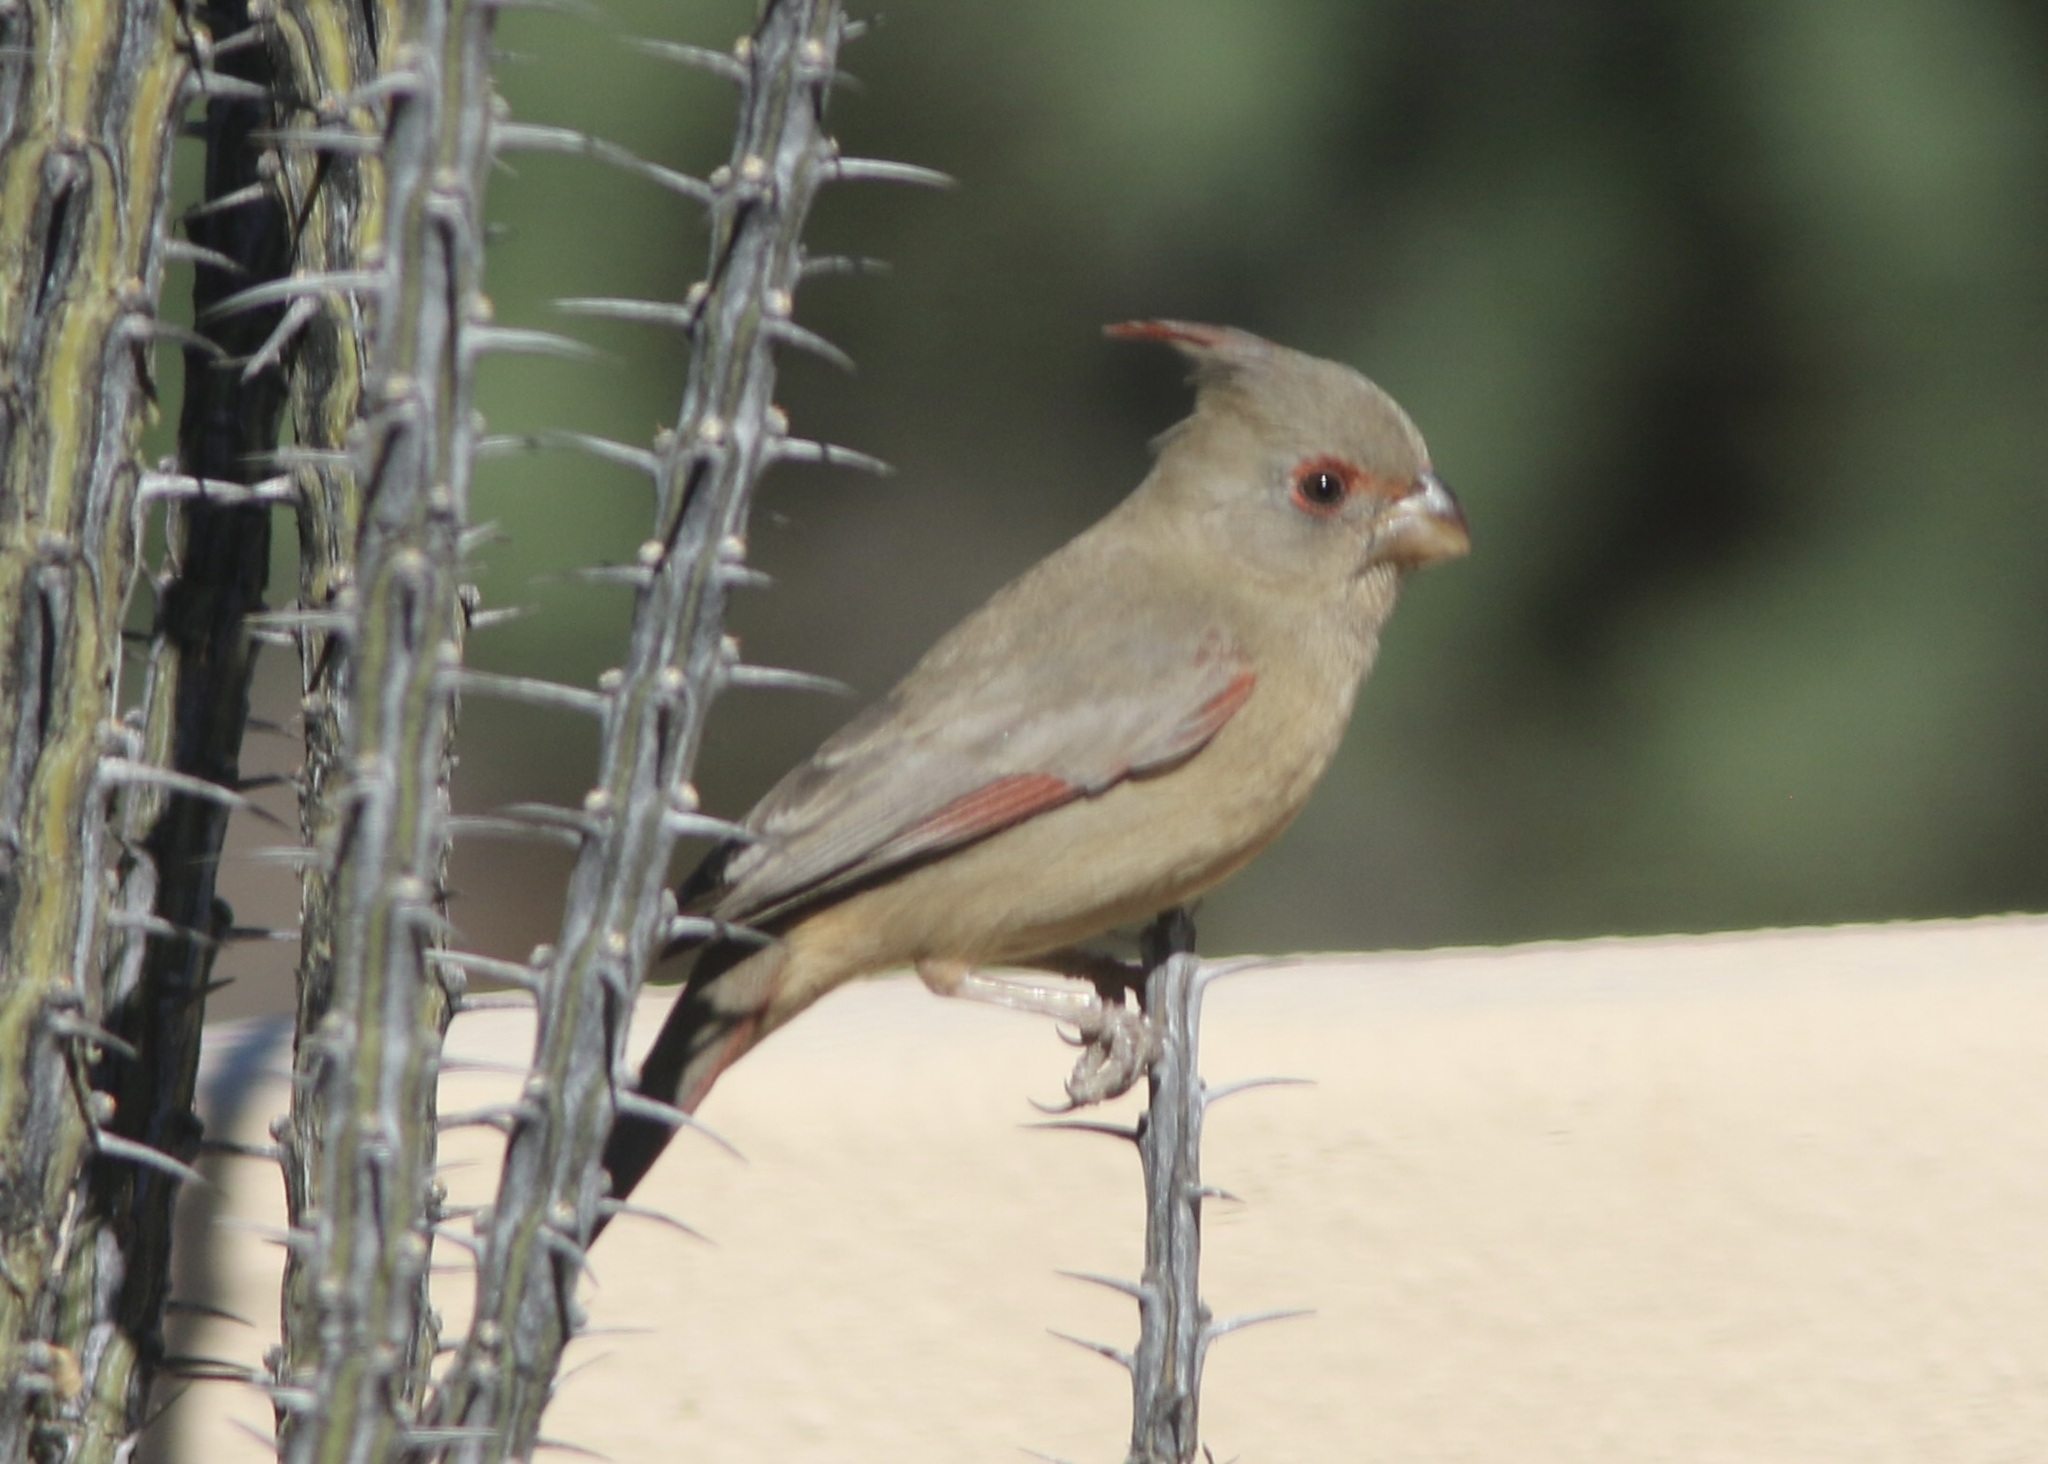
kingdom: Animalia
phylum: Chordata
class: Aves
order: Passeriformes
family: Cardinalidae
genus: Cardinalis
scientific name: Cardinalis sinuatus
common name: Pyrrhuloxia
